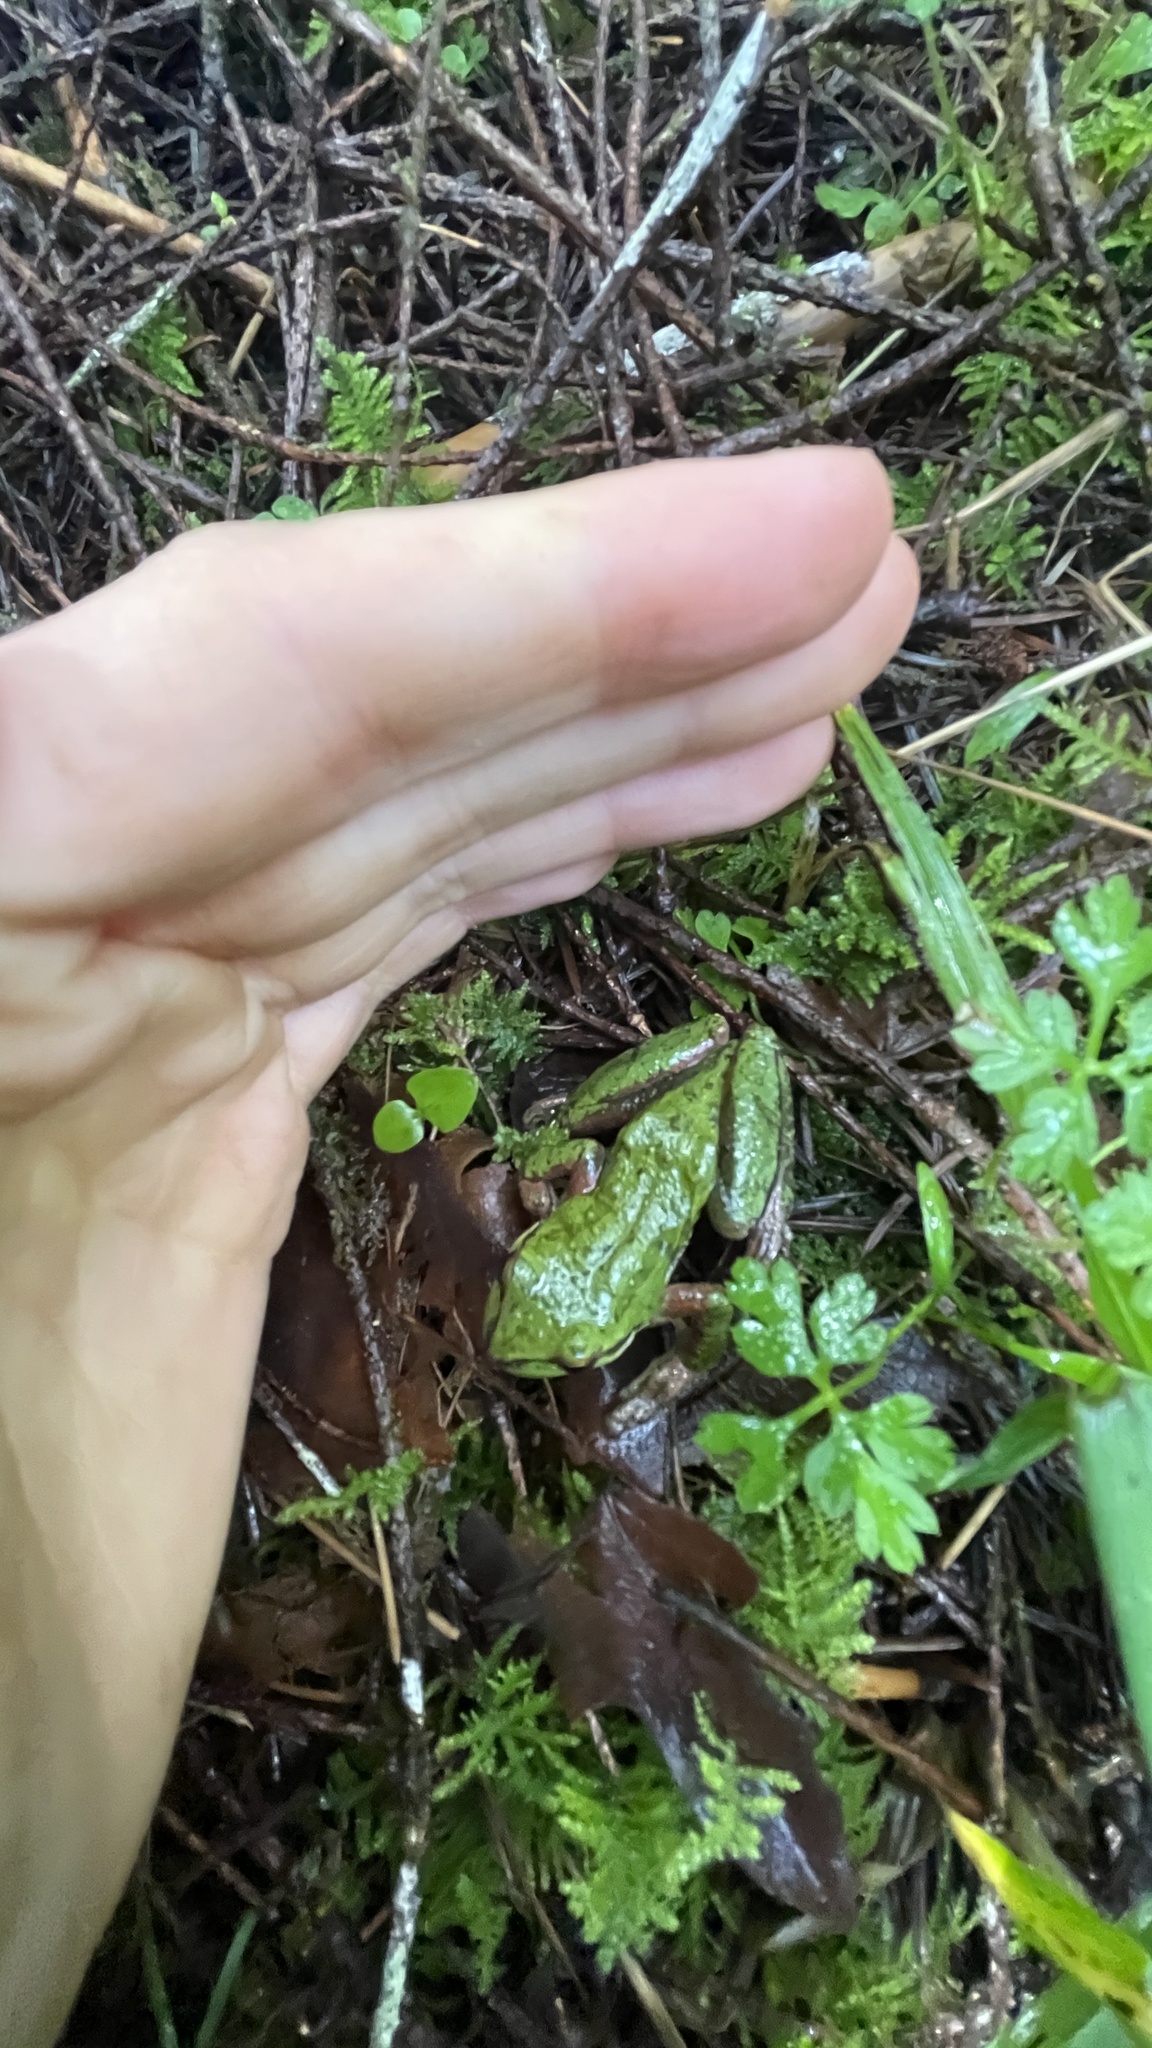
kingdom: Animalia
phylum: Chordata
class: Amphibia
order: Anura
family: Hylidae
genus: Pseudacris
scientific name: Pseudacris regilla
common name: Pacific chorus frog
